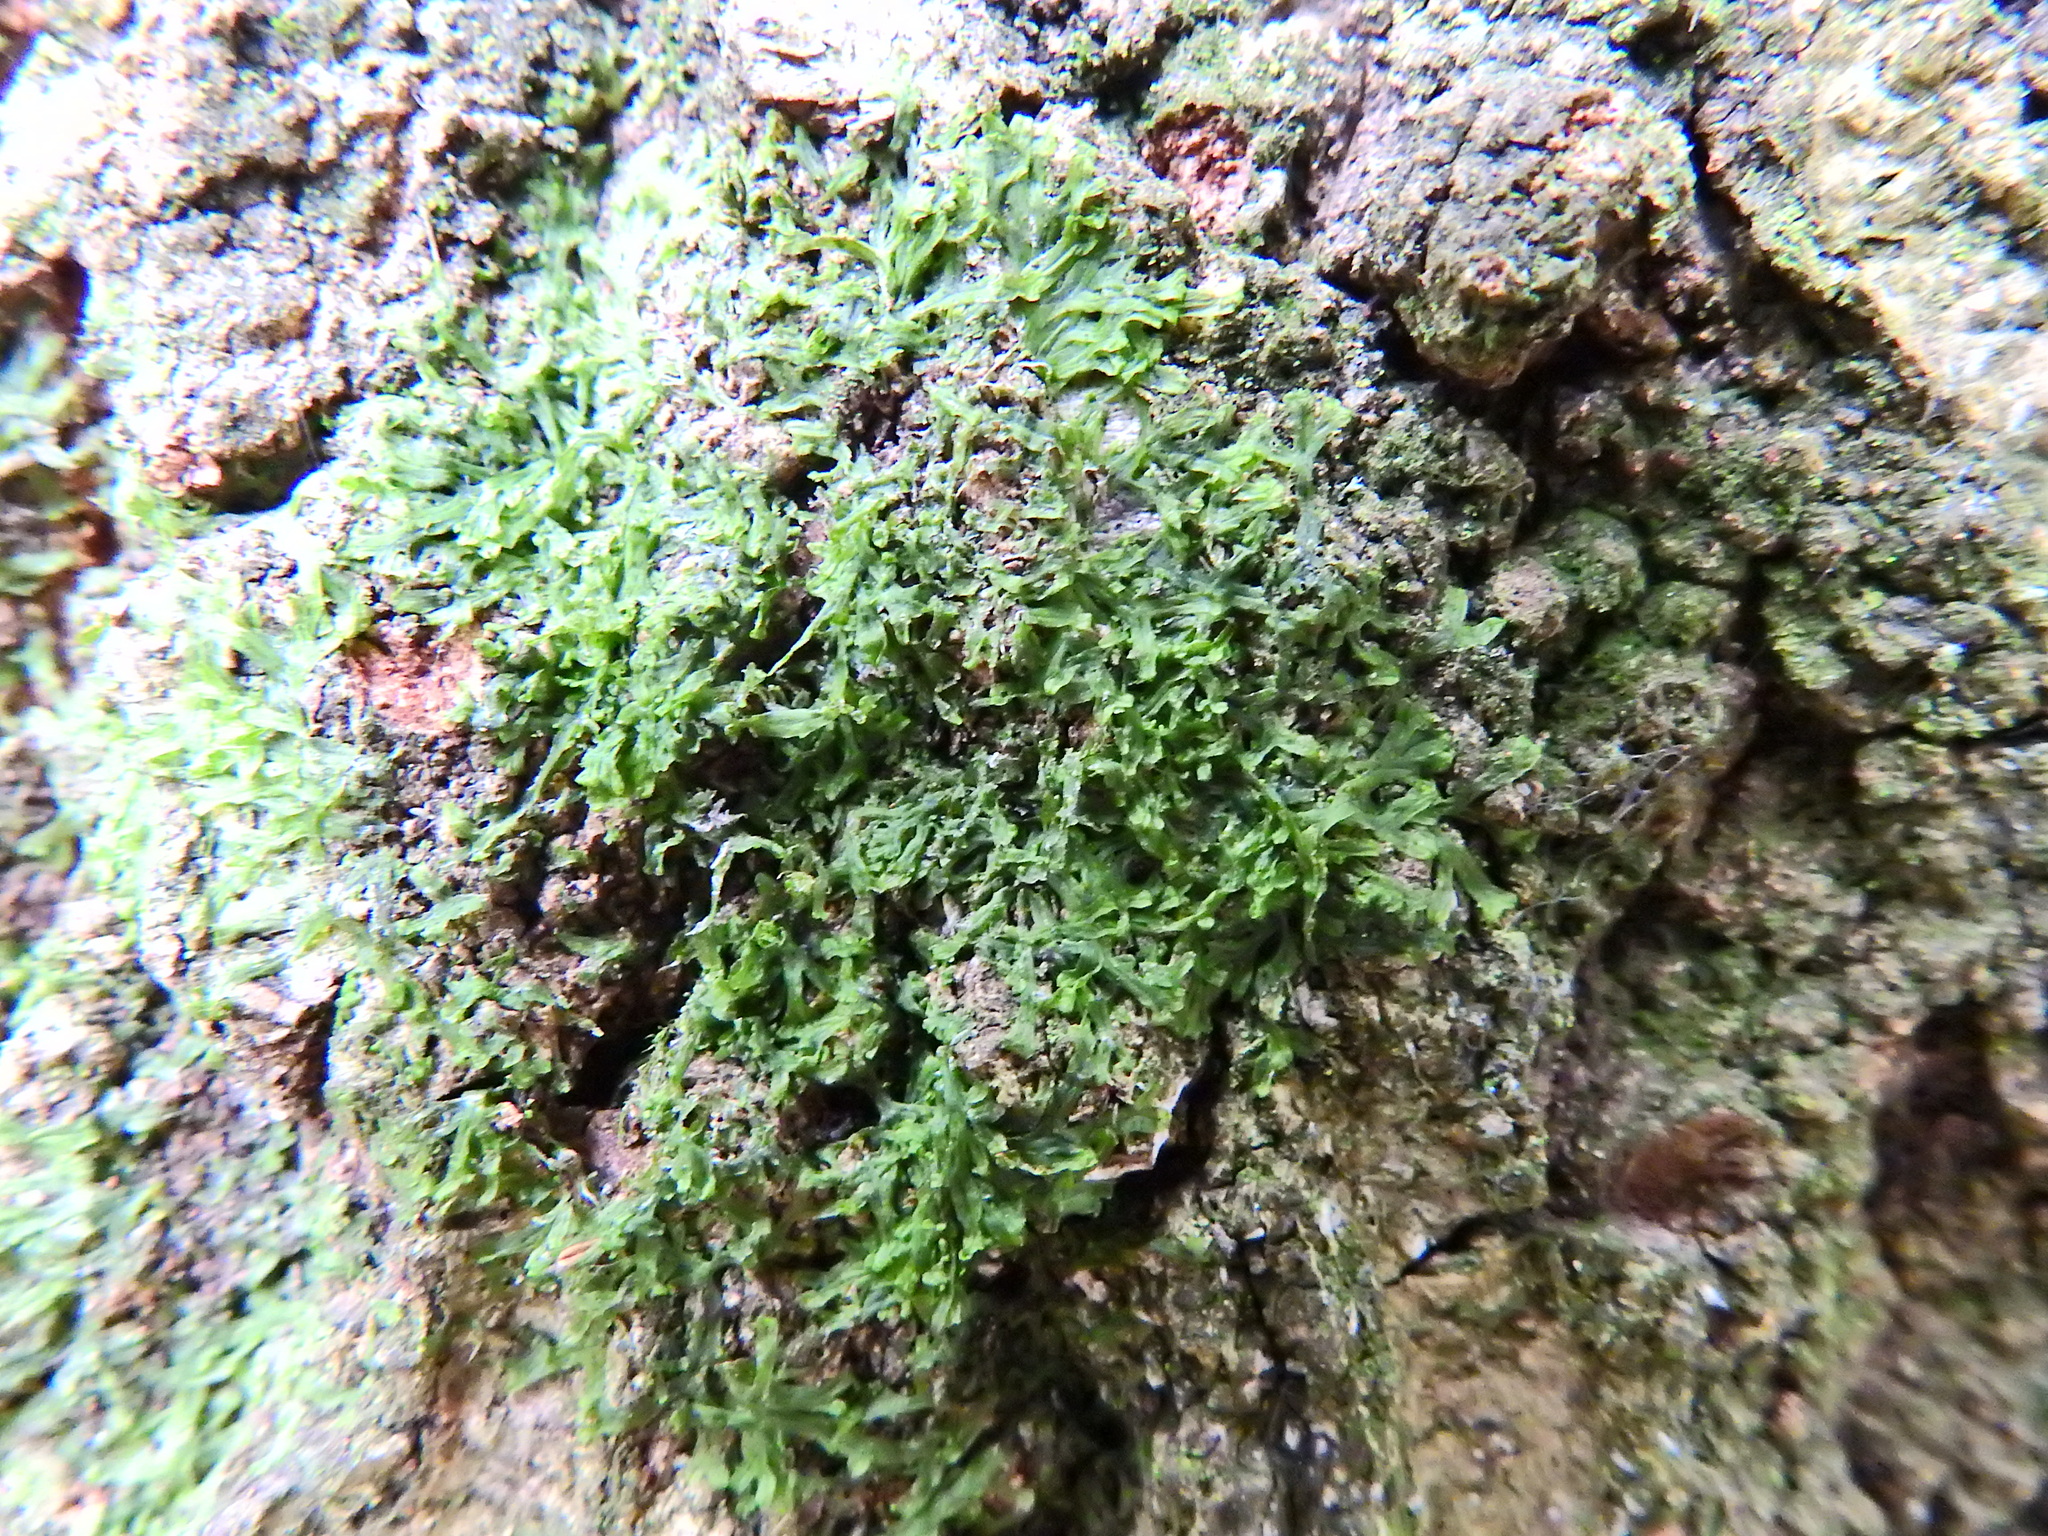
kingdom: Plantae
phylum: Marchantiophyta
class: Jungermanniopsida
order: Metzgeriales
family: Metzgeriaceae
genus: Metzgeria
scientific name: Metzgeria furcata
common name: Forked veilwort
